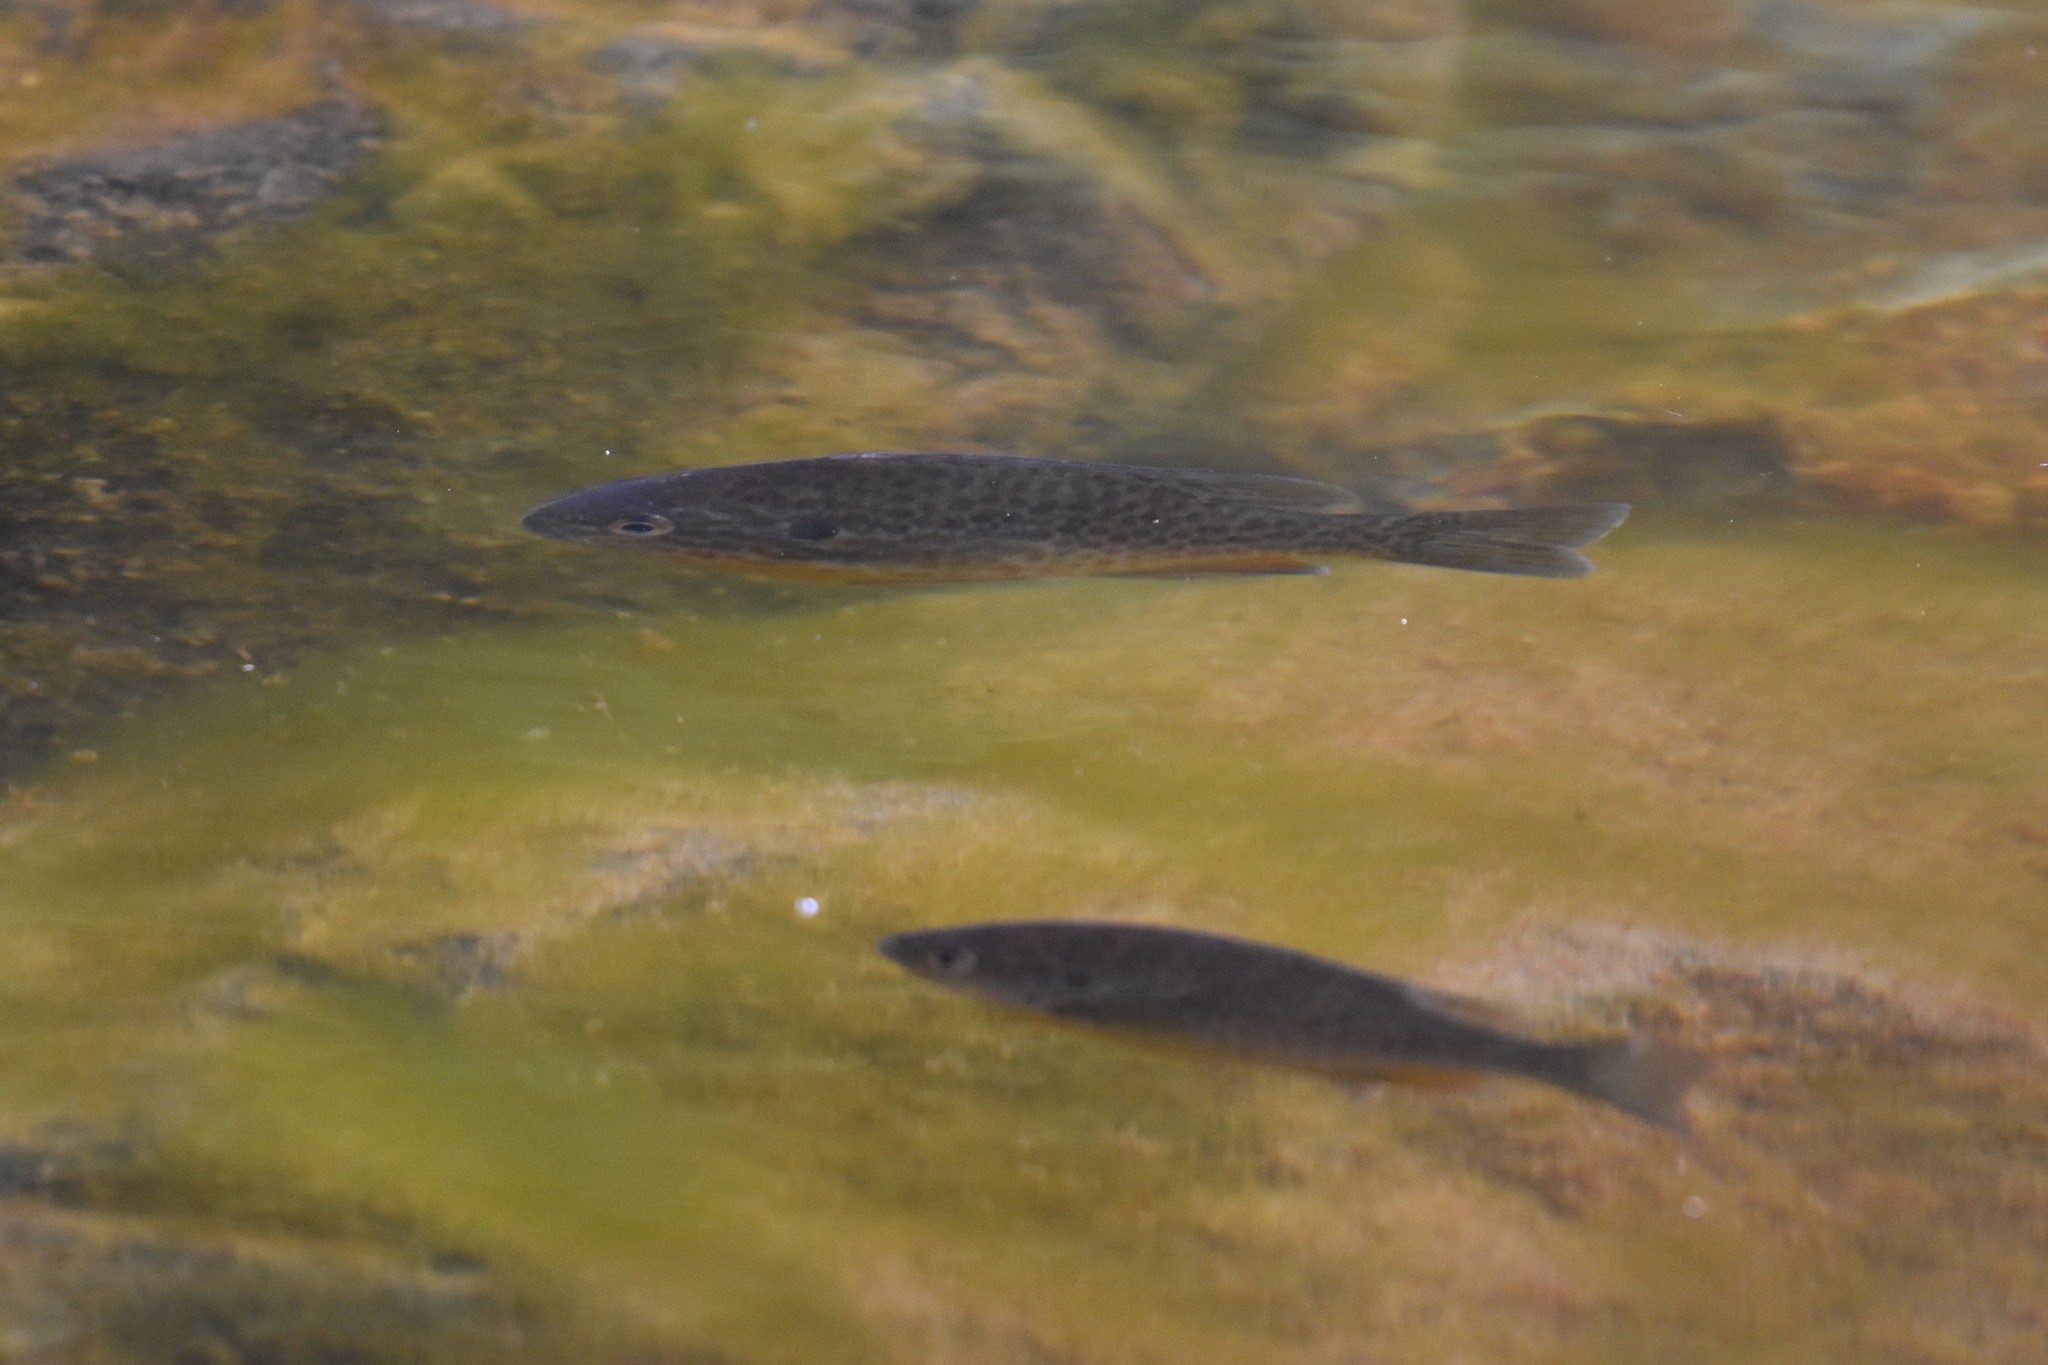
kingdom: Animalia
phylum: Chordata
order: Perciformes
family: Centrarchidae
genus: Lepomis
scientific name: Lepomis gibbosus
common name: Pumpkinseed
